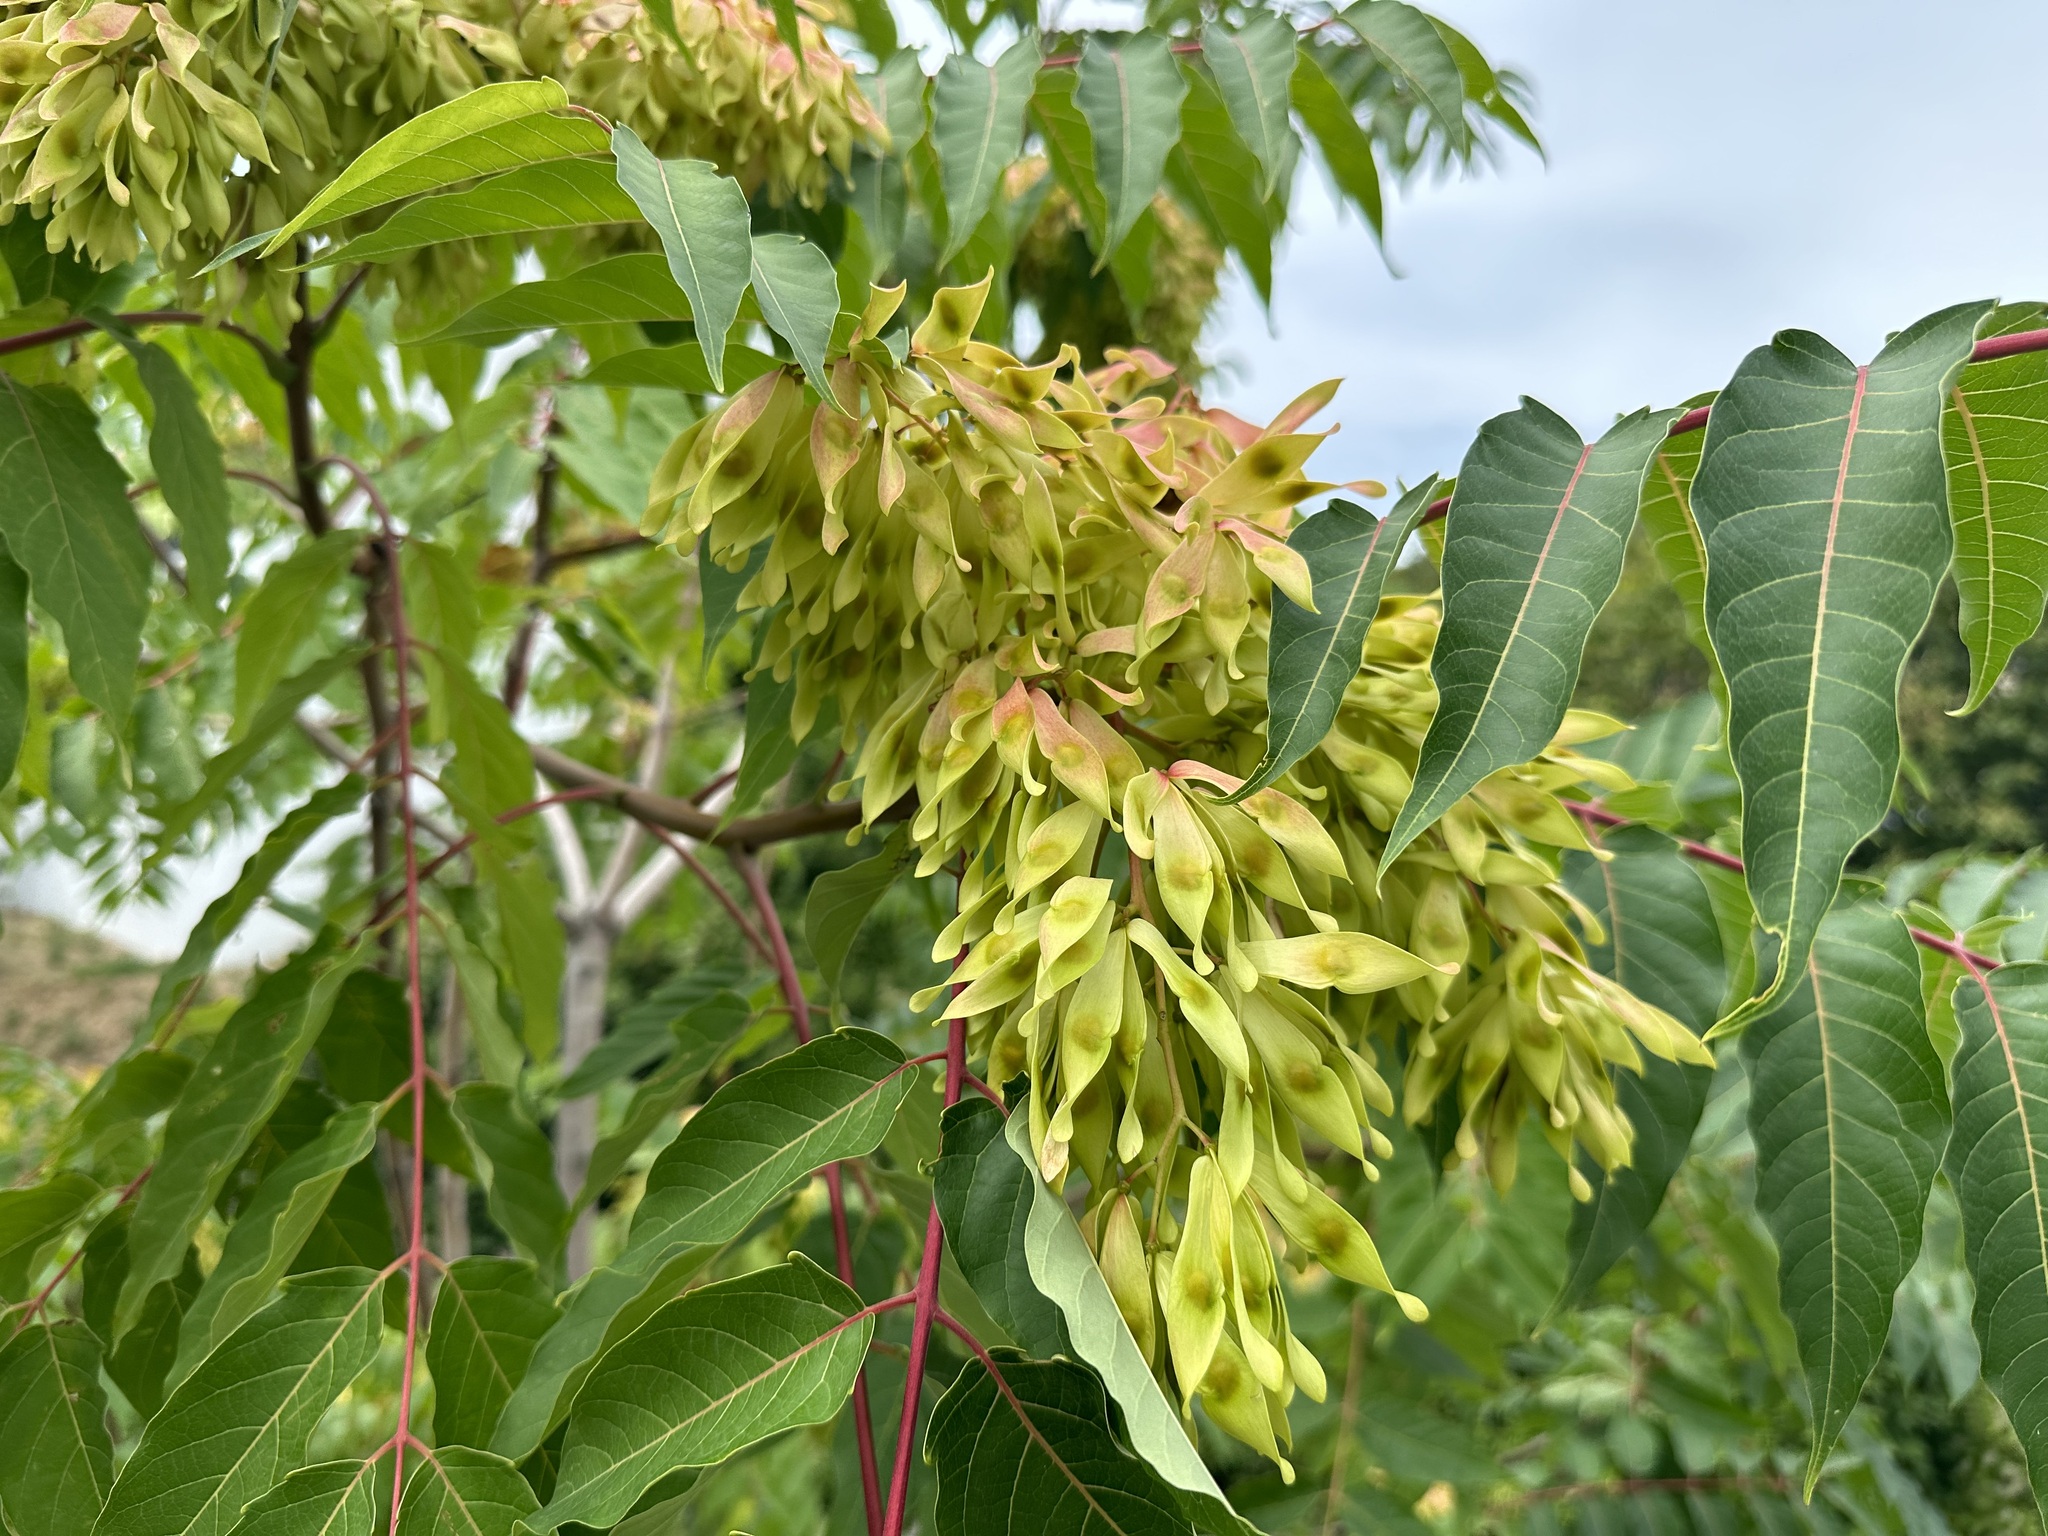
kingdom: Plantae
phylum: Tracheophyta
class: Magnoliopsida
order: Sapindales
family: Simaroubaceae
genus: Ailanthus
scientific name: Ailanthus altissima
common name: Tree-of-heaven
